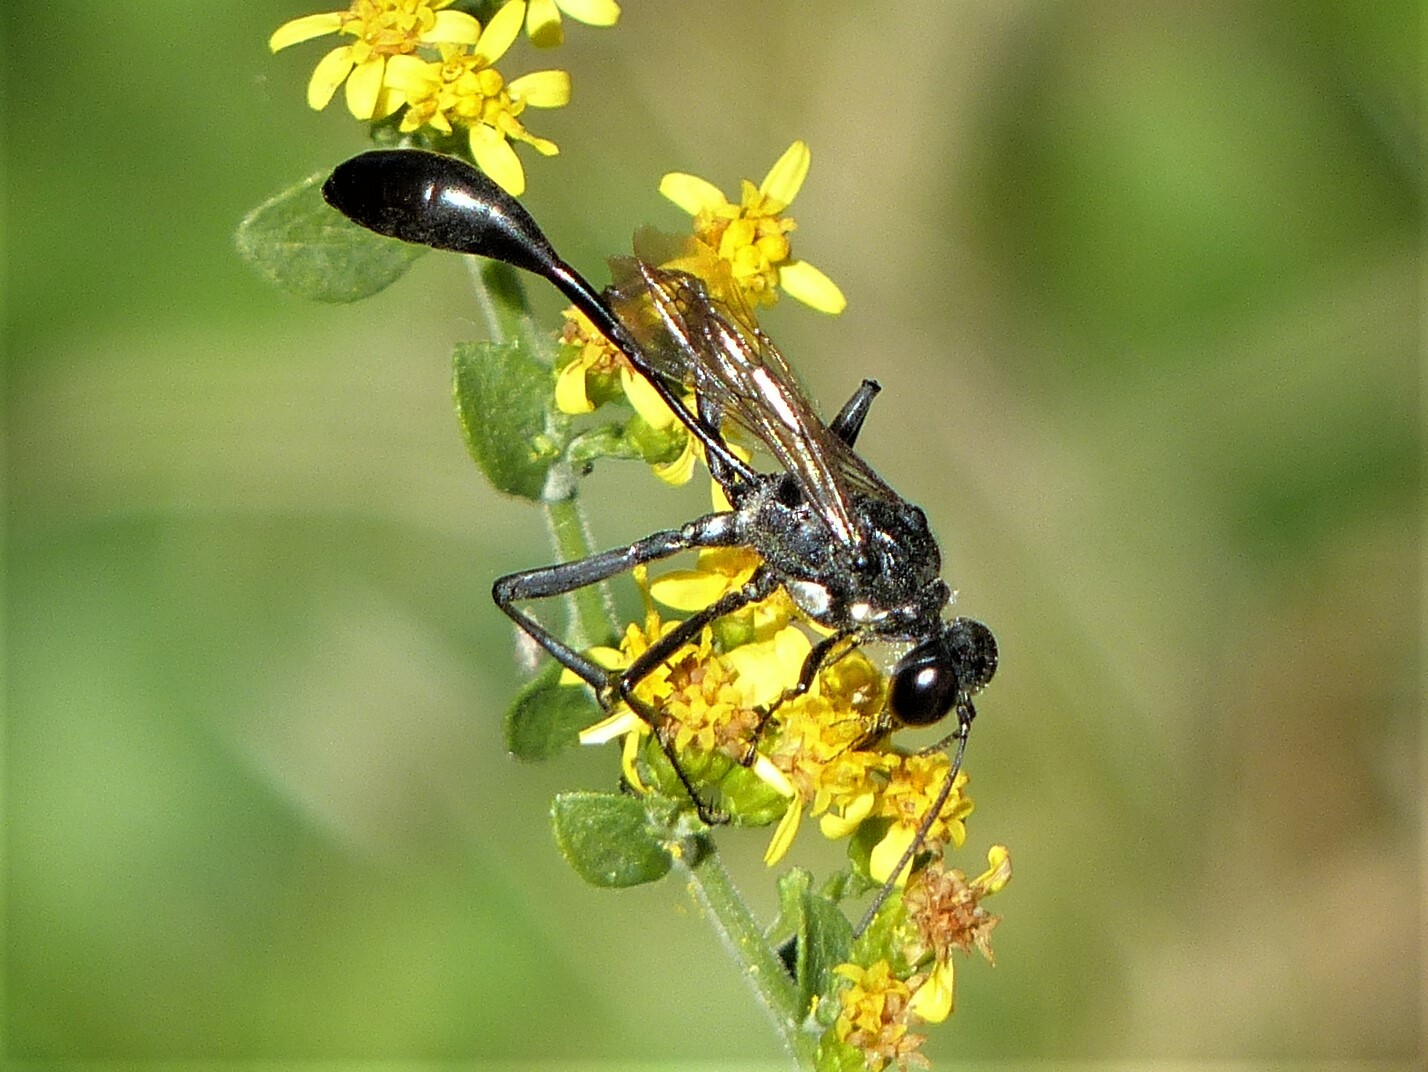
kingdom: Animalia
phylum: Arthropoda
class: Insecta
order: Hymenoptera
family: Sphecidae
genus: Eremnophila
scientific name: Eremnophila aureonotata
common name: Gold-marked thread-waisted wasp
